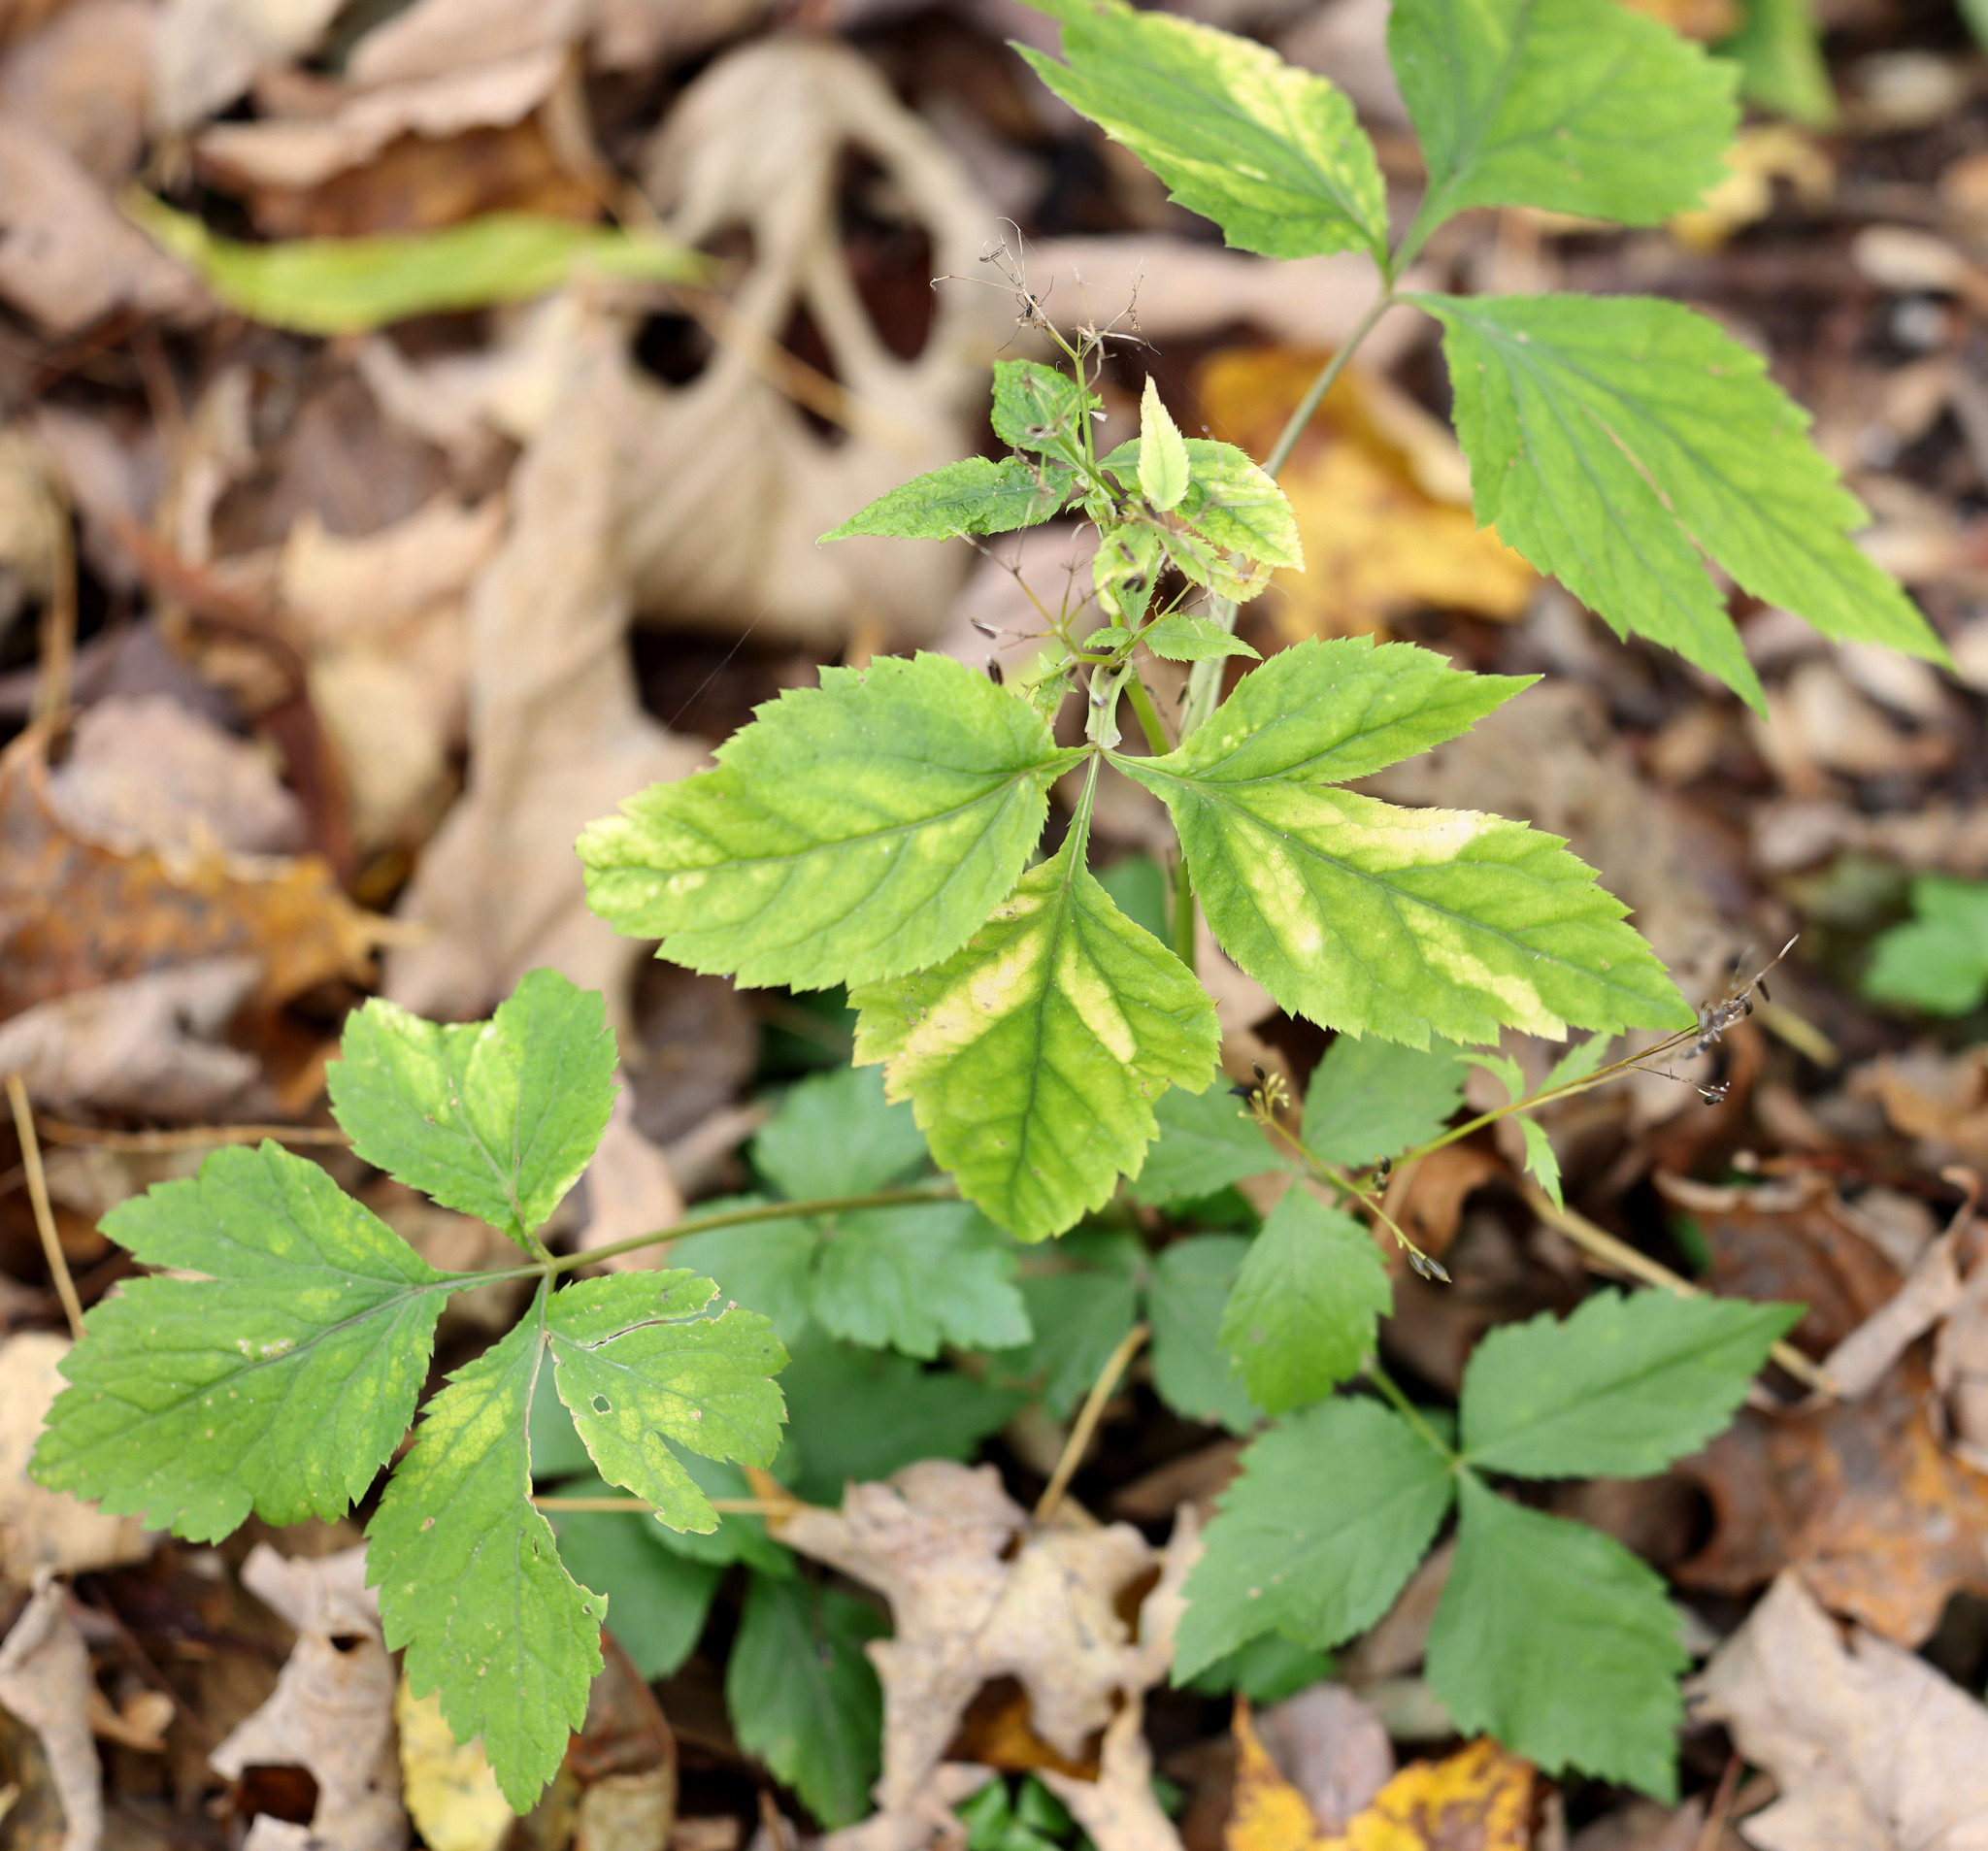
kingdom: Plantae
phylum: Tracheophyta
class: Magnoliopsida
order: Apiales
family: Apiaceae
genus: Cryptotaenia
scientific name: Cryptotaenia canadensis
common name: Honewort
